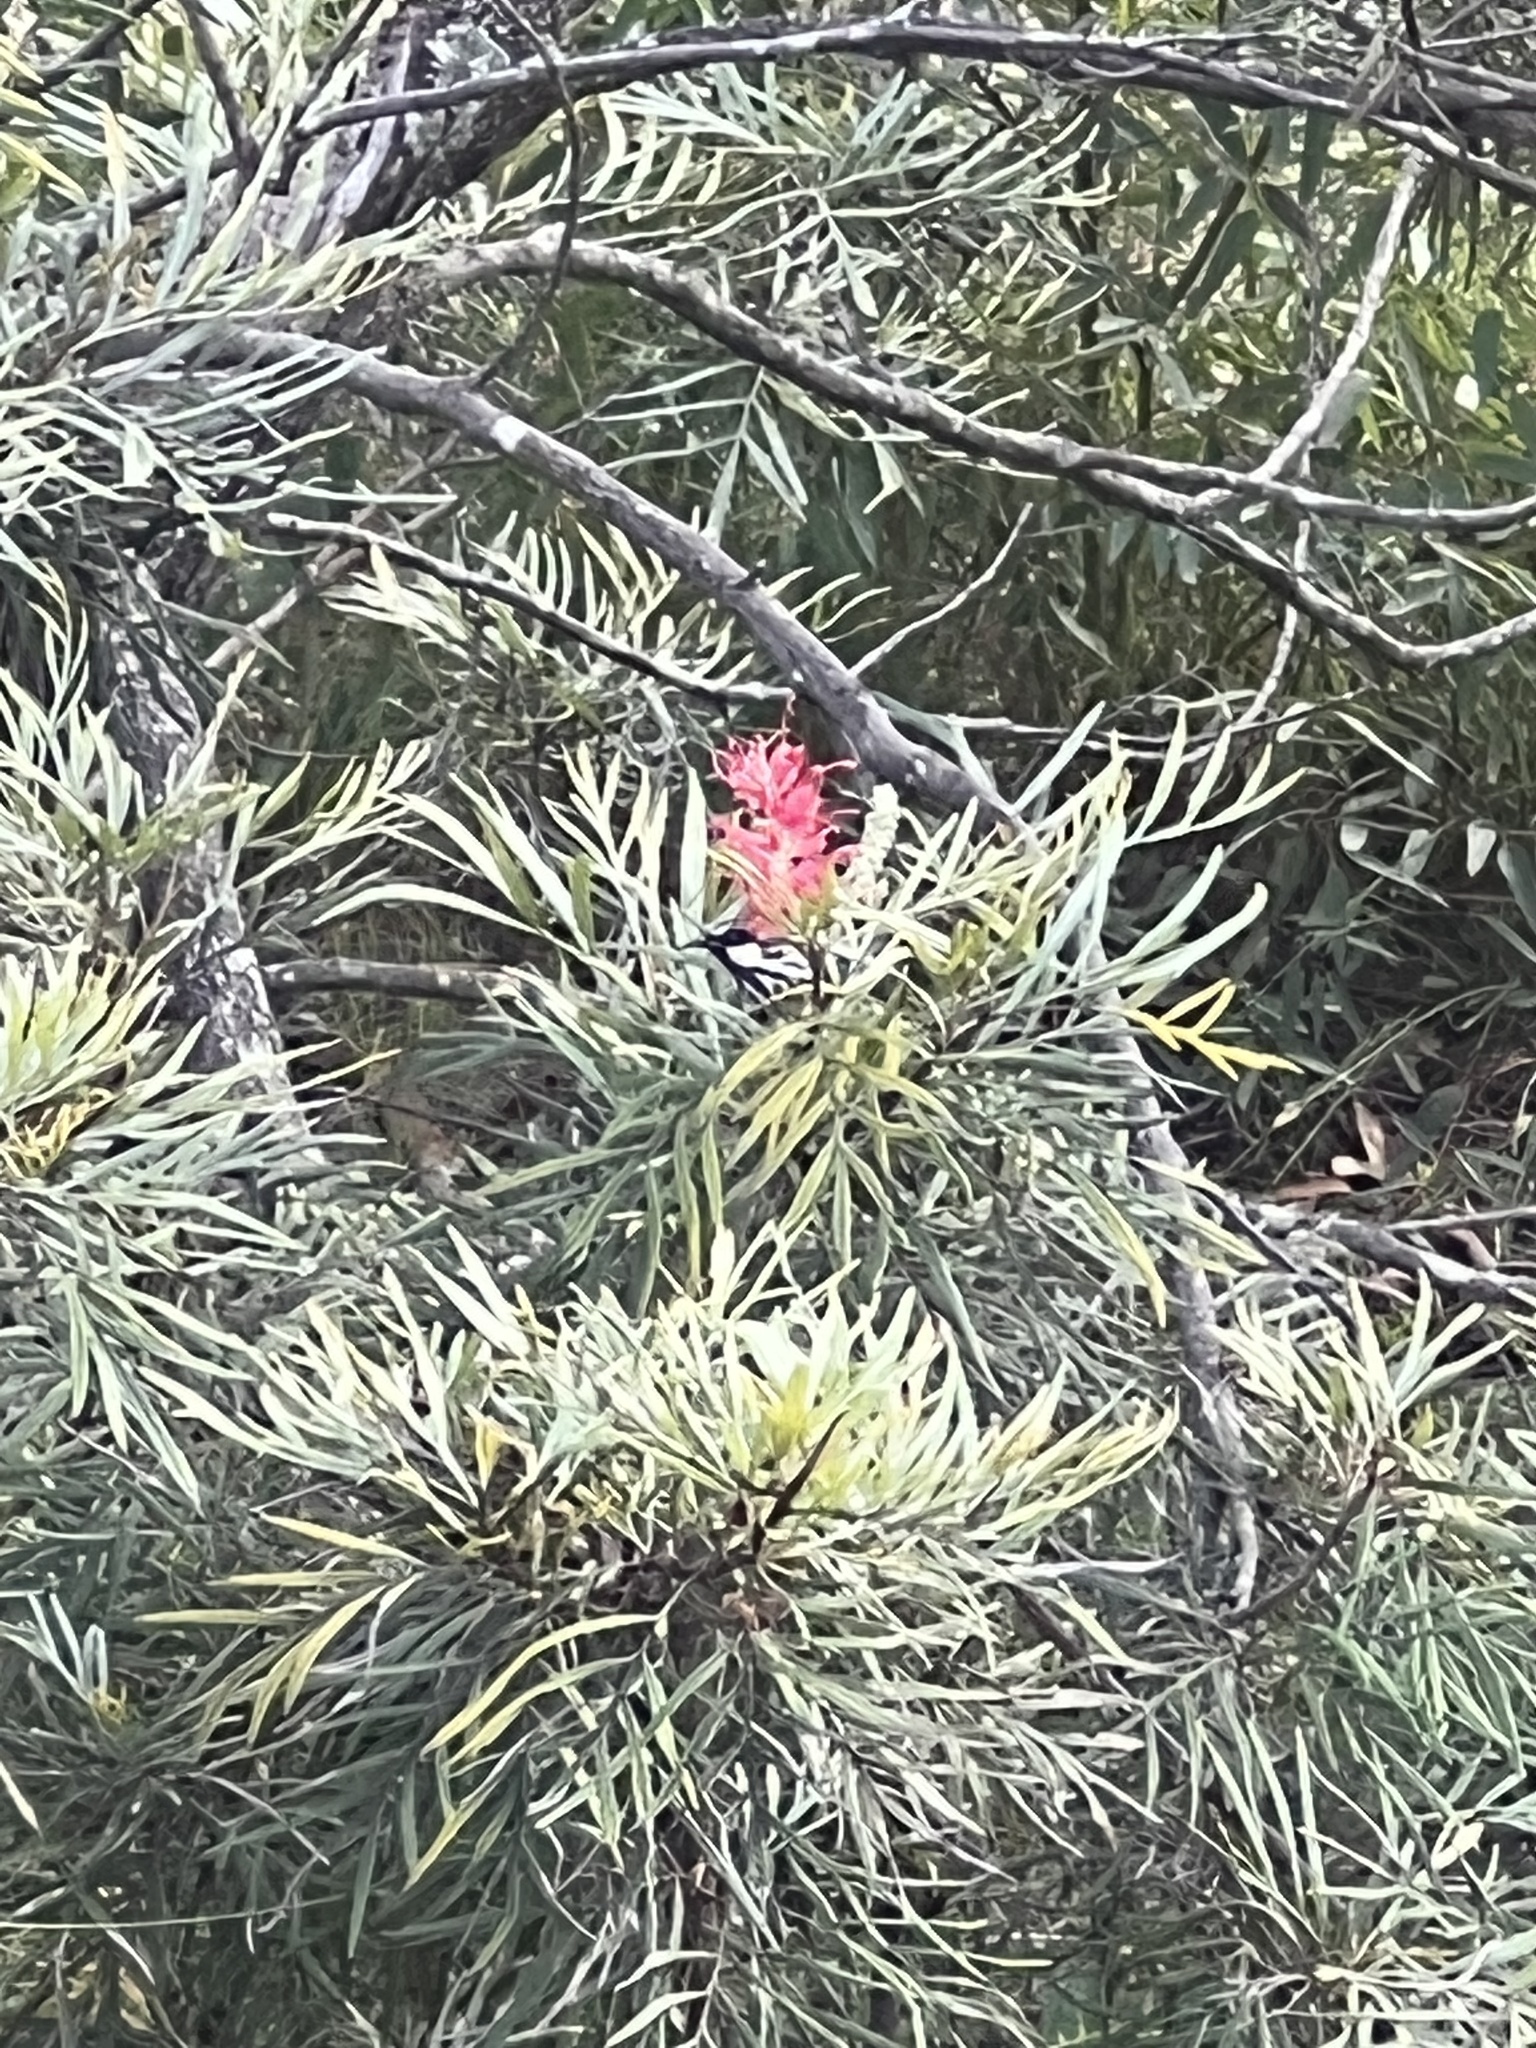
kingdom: Animalia
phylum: Chordata
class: Aves
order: Passeriformes
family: Meliphagidae
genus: Phylidonyris
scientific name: Phylidonyris niger
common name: White-cheeked honeyeater
